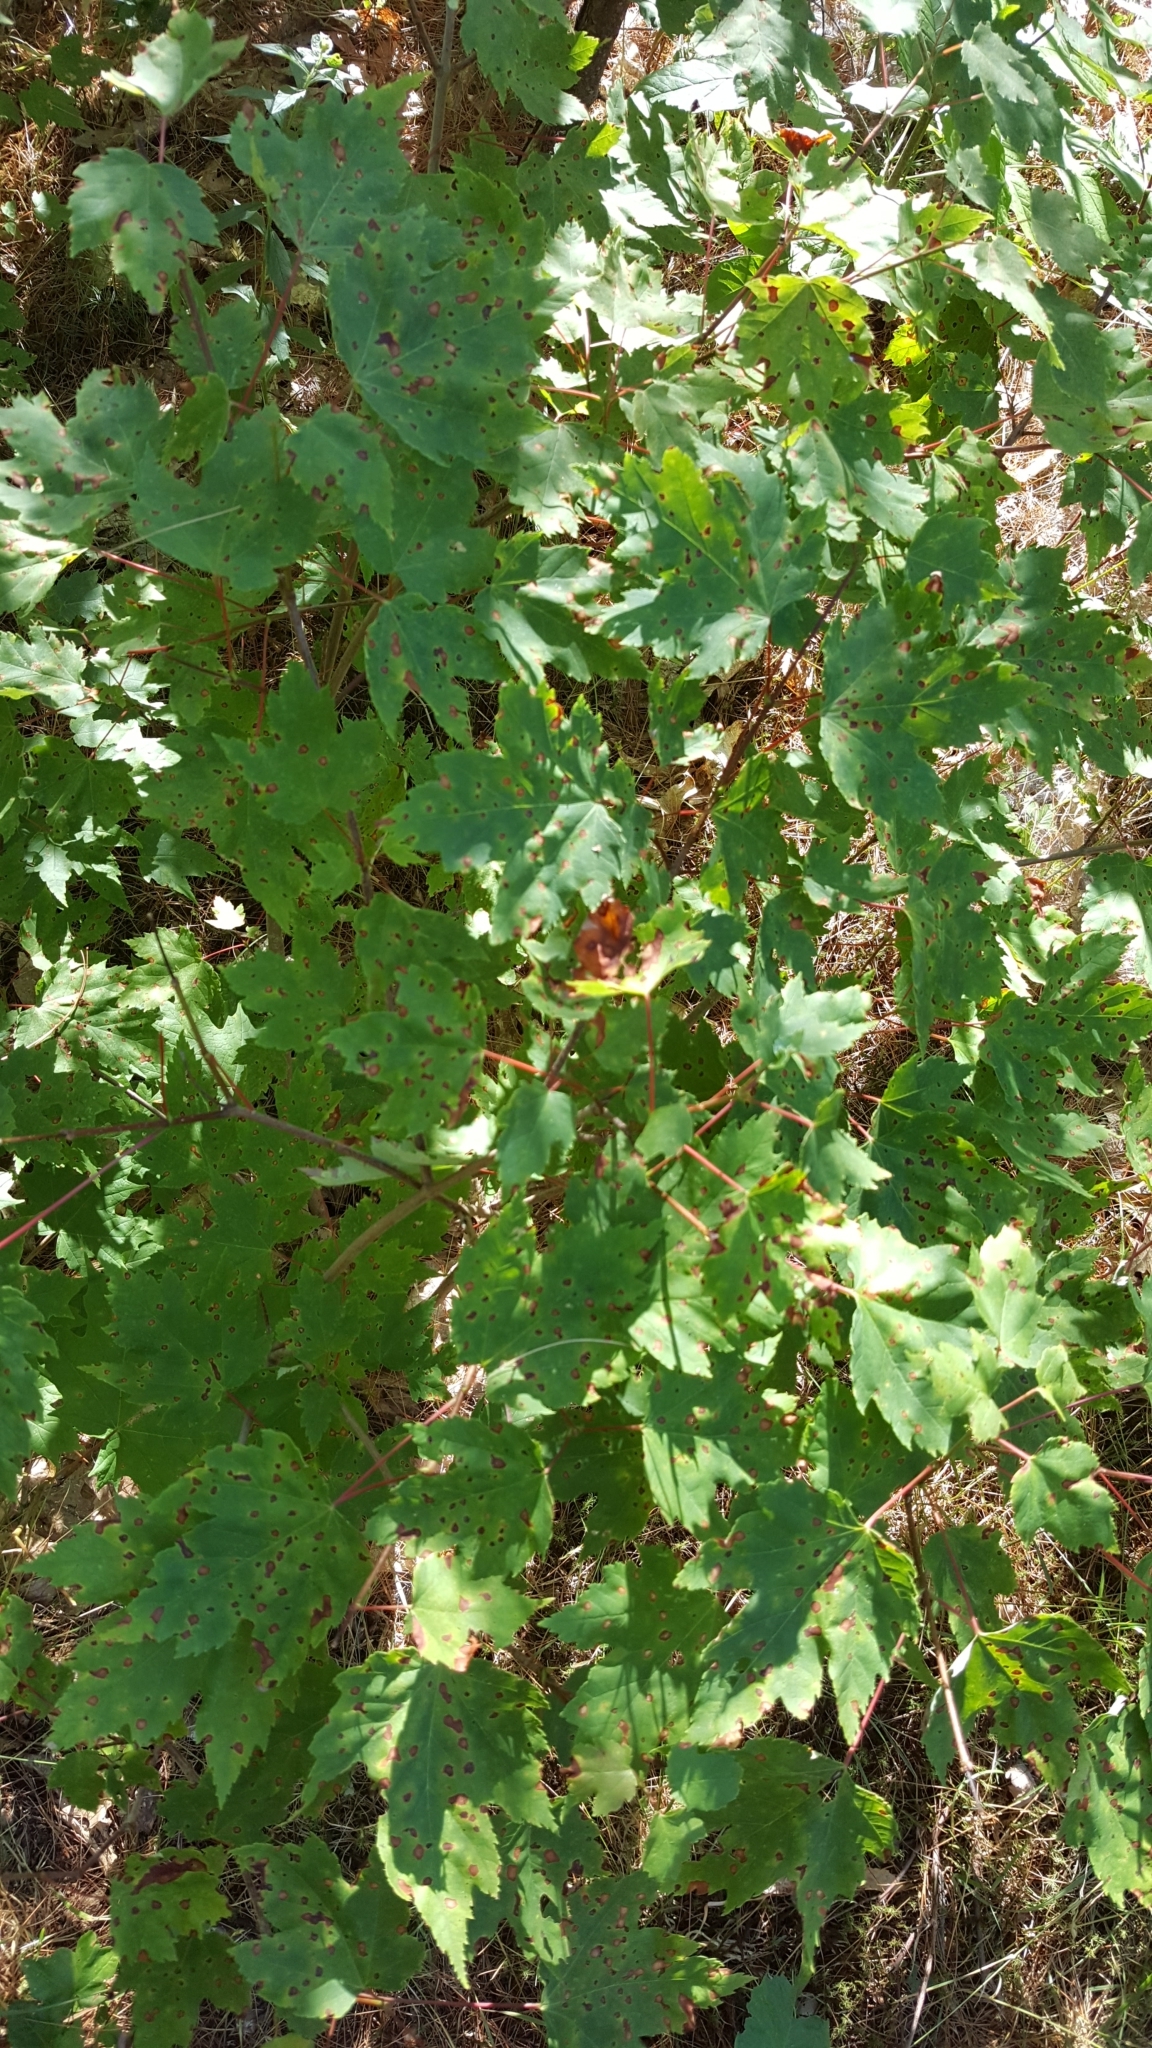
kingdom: Plantae
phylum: Tracheophyta
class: Magnoliopsida
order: Sapindales
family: Sapindaceae
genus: Acer
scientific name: Acer rubrum
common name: Red maple
